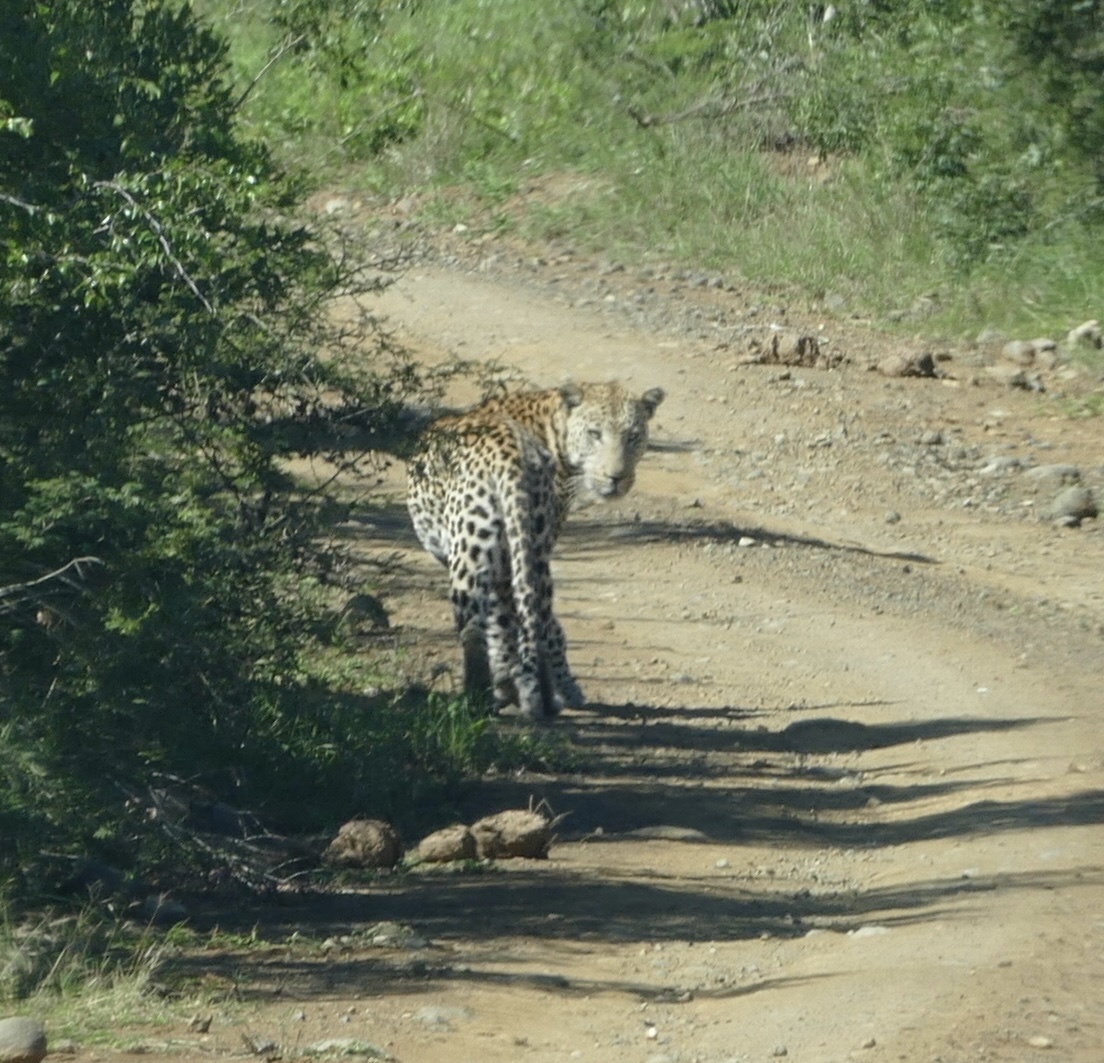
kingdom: Animalia
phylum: Chordata
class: Mammalia
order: Carnivora
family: Felidae
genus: Panthera
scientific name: Panthera pardus
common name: Leopard
